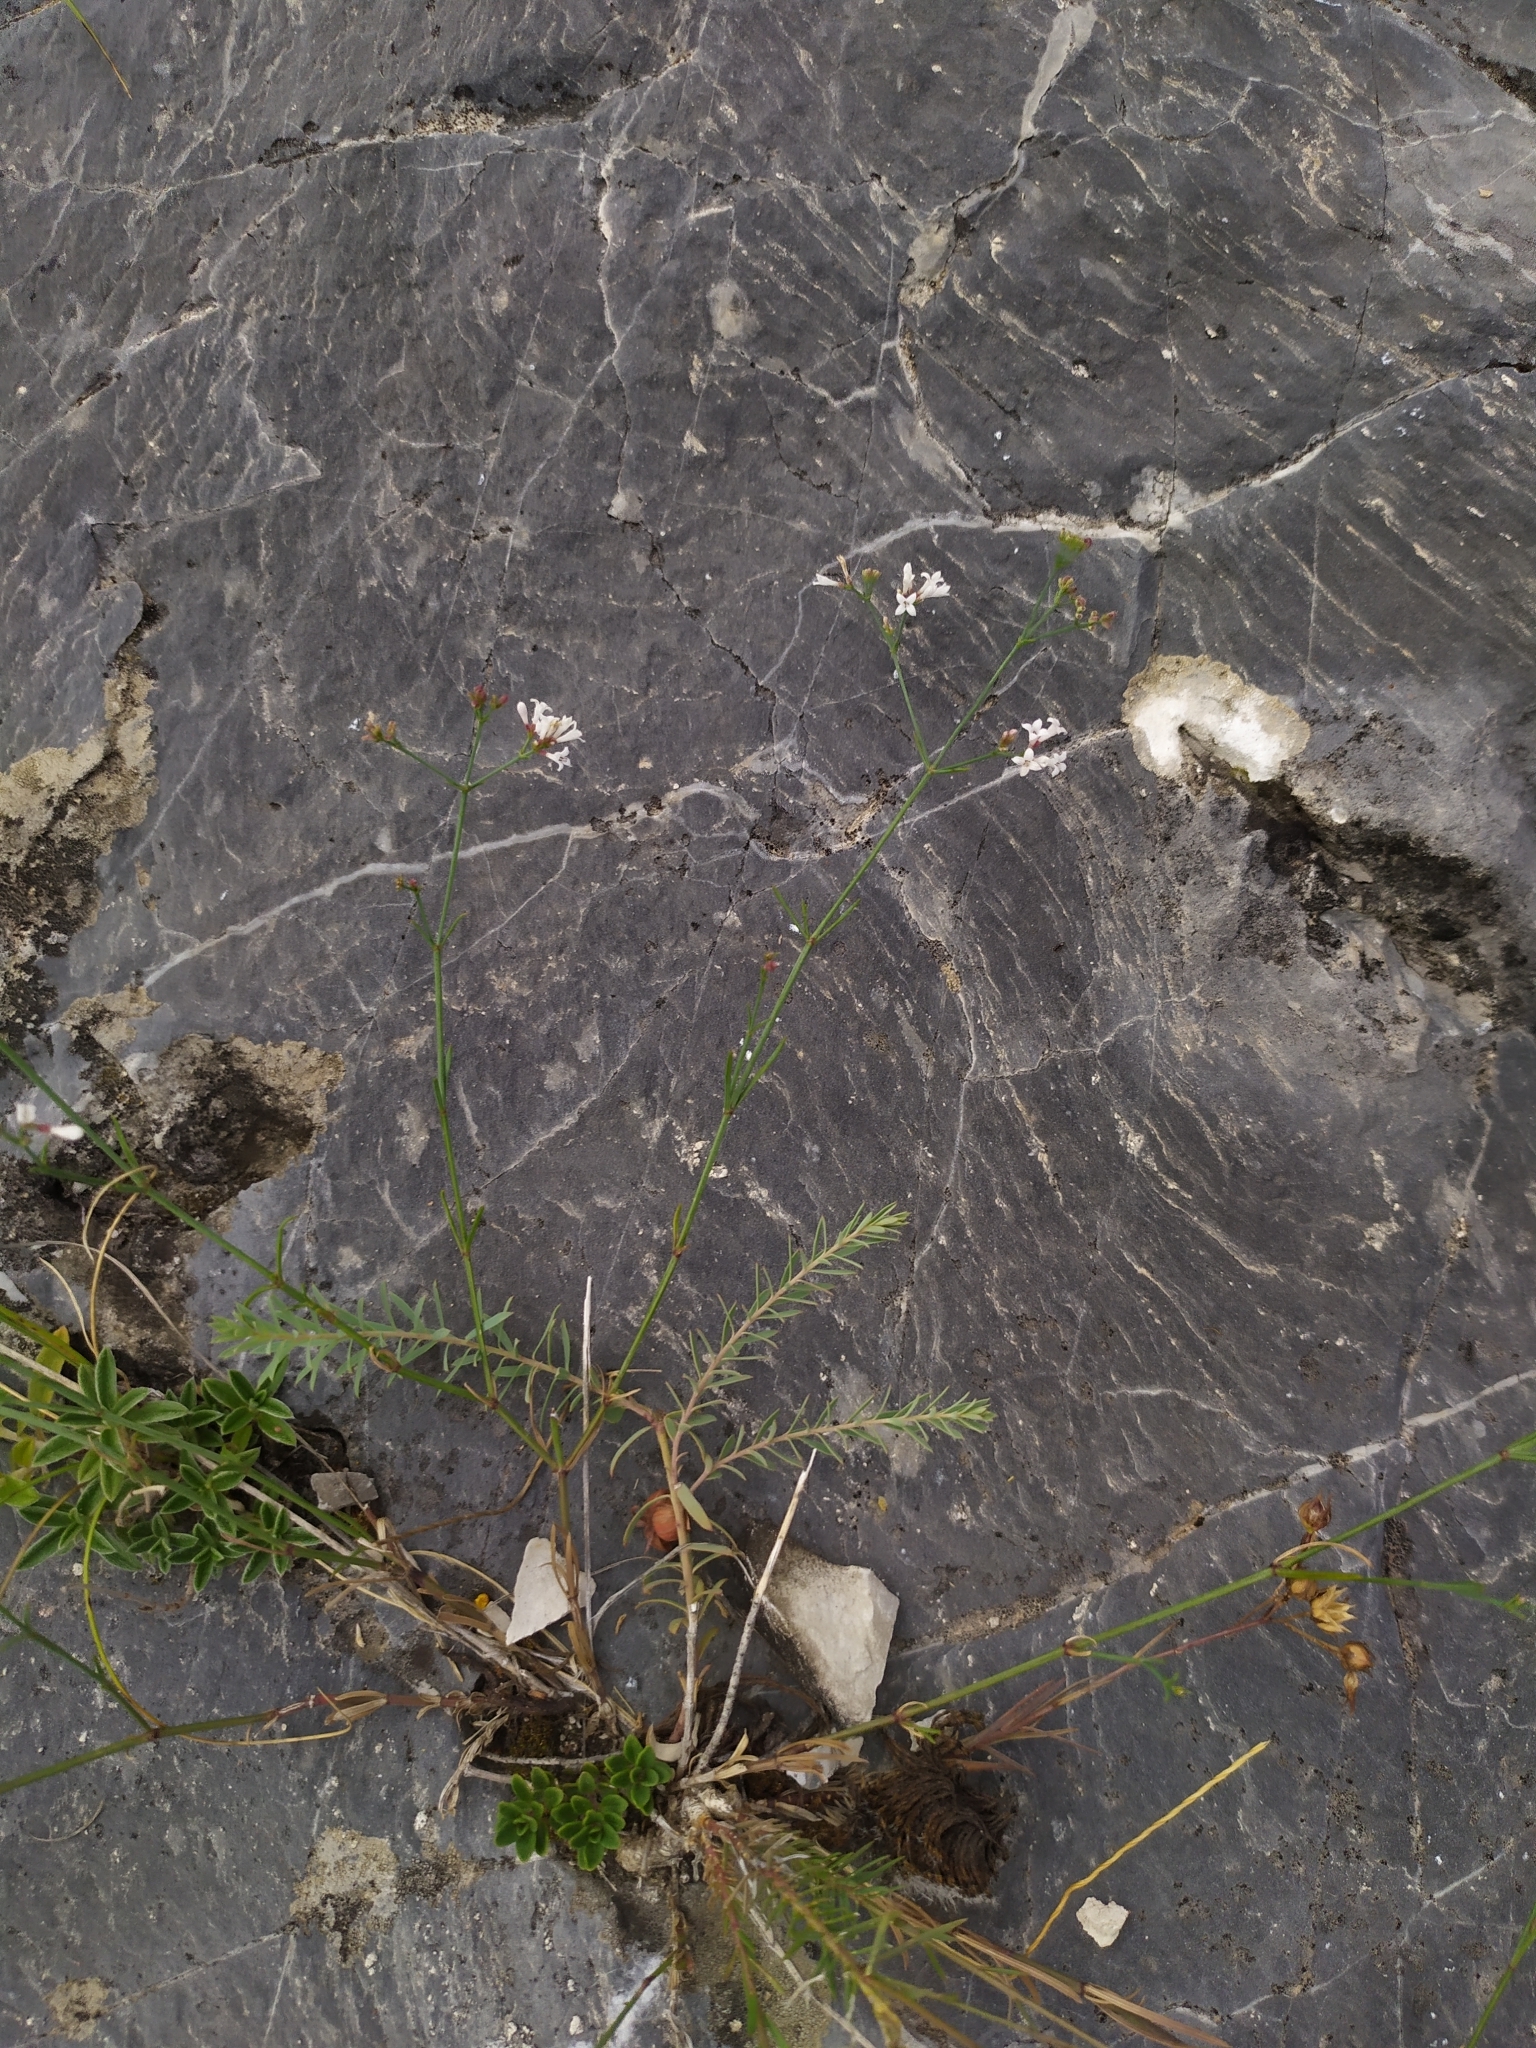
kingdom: Plantae
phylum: Tracheophyta
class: Magnoliopsida
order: Gentianales
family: Rubiaceae
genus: Cynanchica
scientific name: Cynanchica pyrenaica
